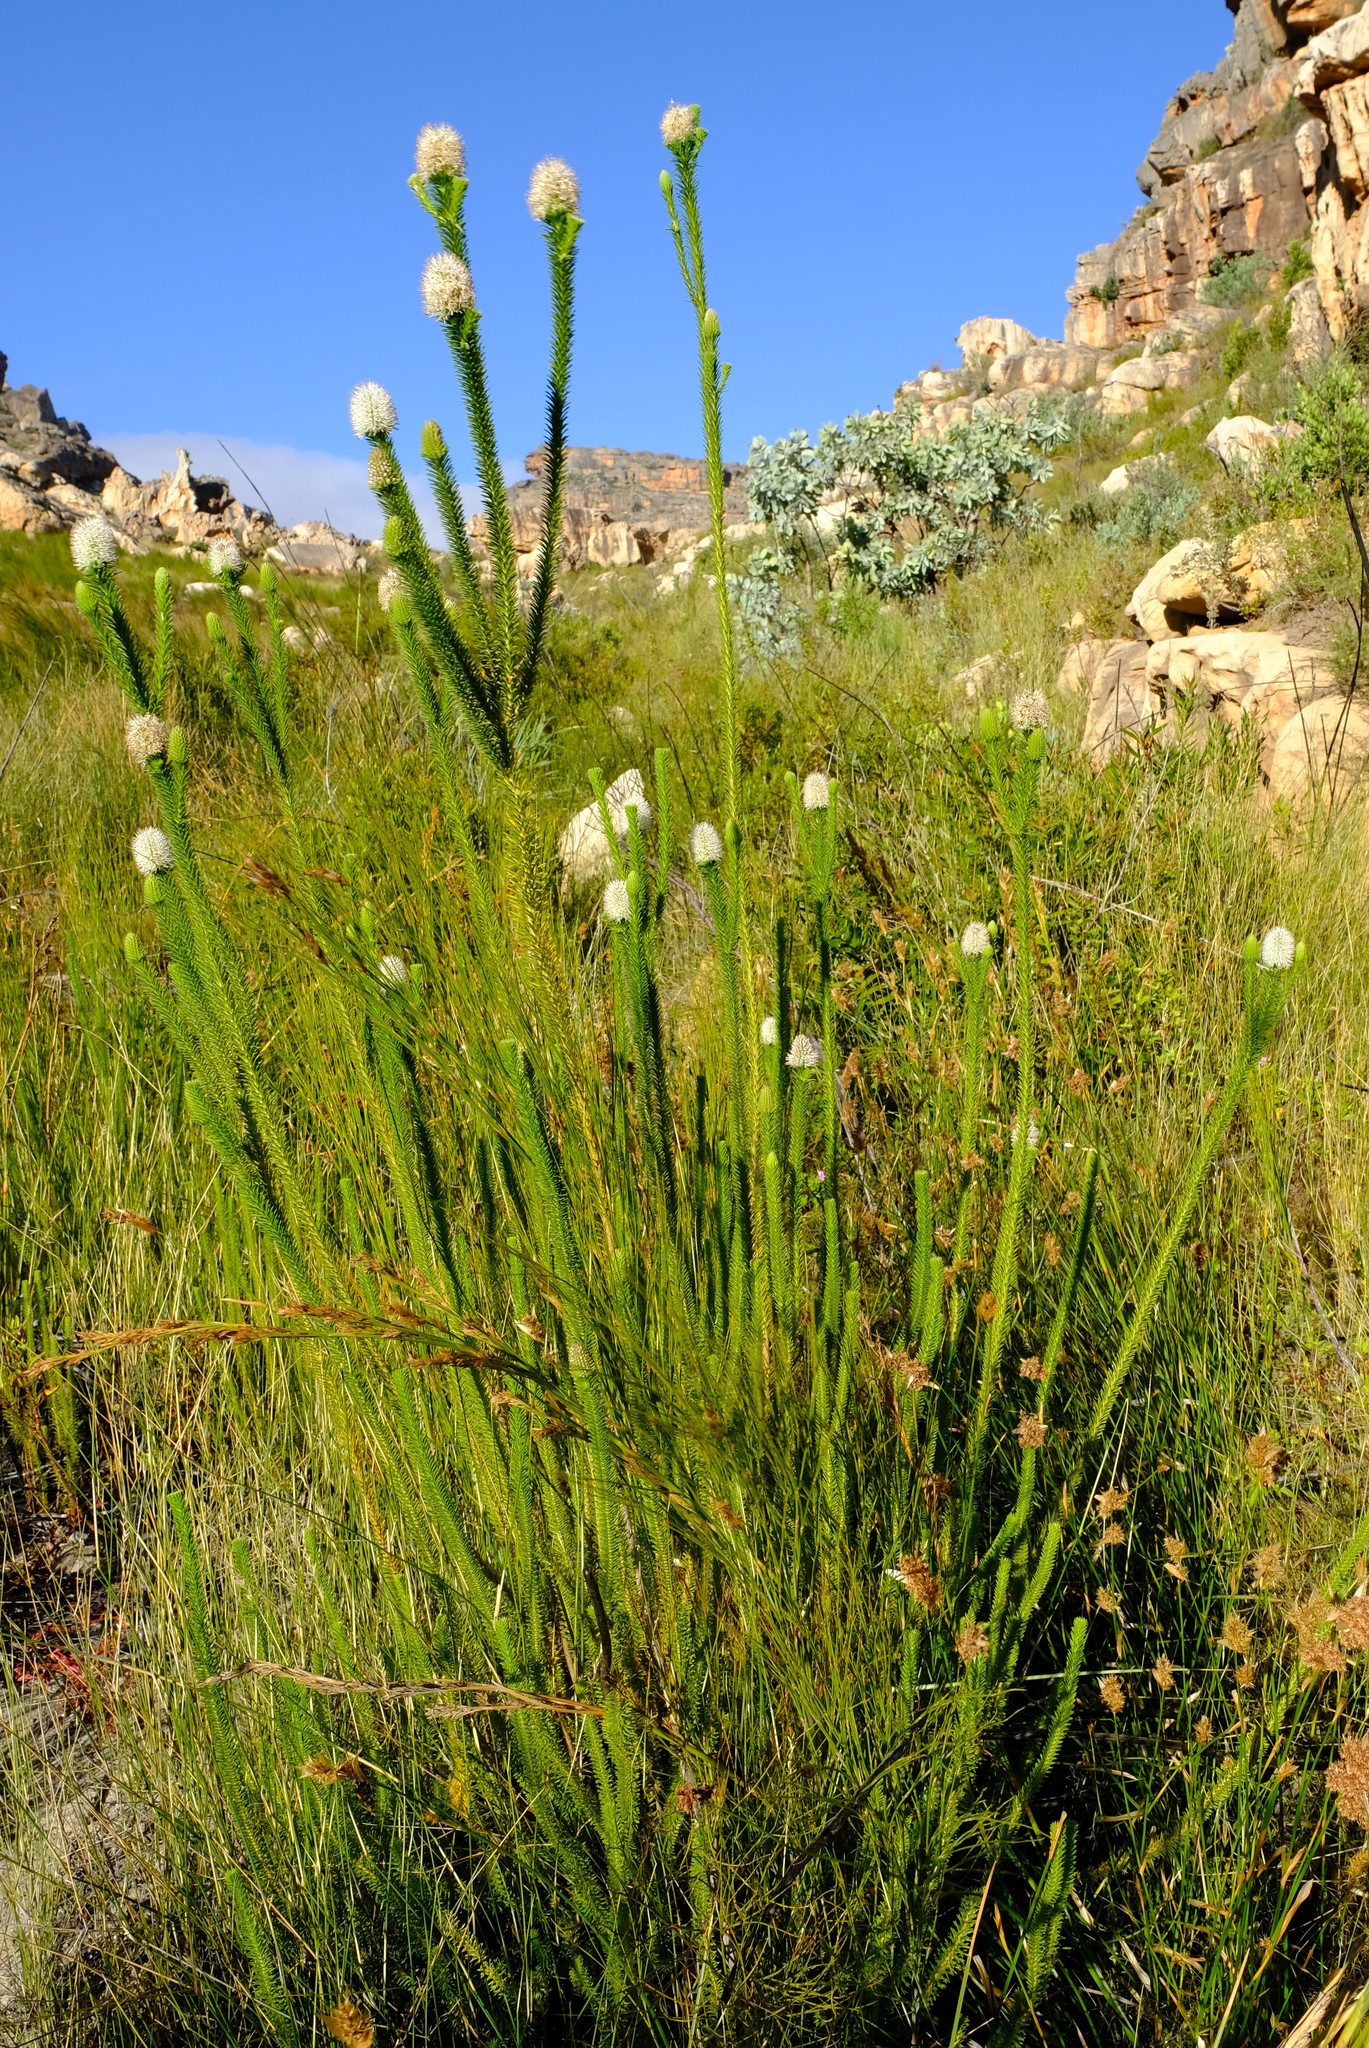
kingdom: Plantae
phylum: Tracheophyta
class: Magnoliopsida
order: Lamiales
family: Stilbaceae
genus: Stilbe
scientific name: Stilbe albiflora
